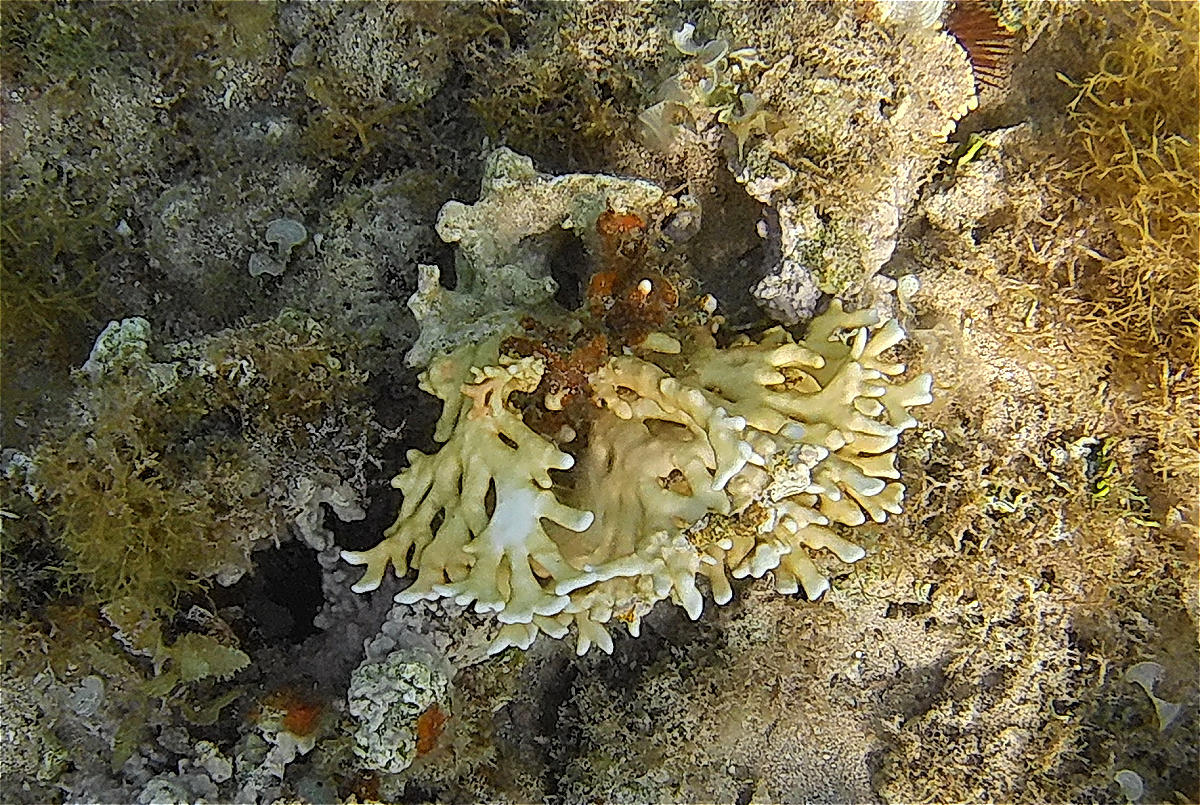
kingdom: Animalia
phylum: Cnidaria
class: Hydrozoa
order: Anthoathecata
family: Milleporidae
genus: Millepora
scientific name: Millepora dichotoma
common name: Ramified fire coral
